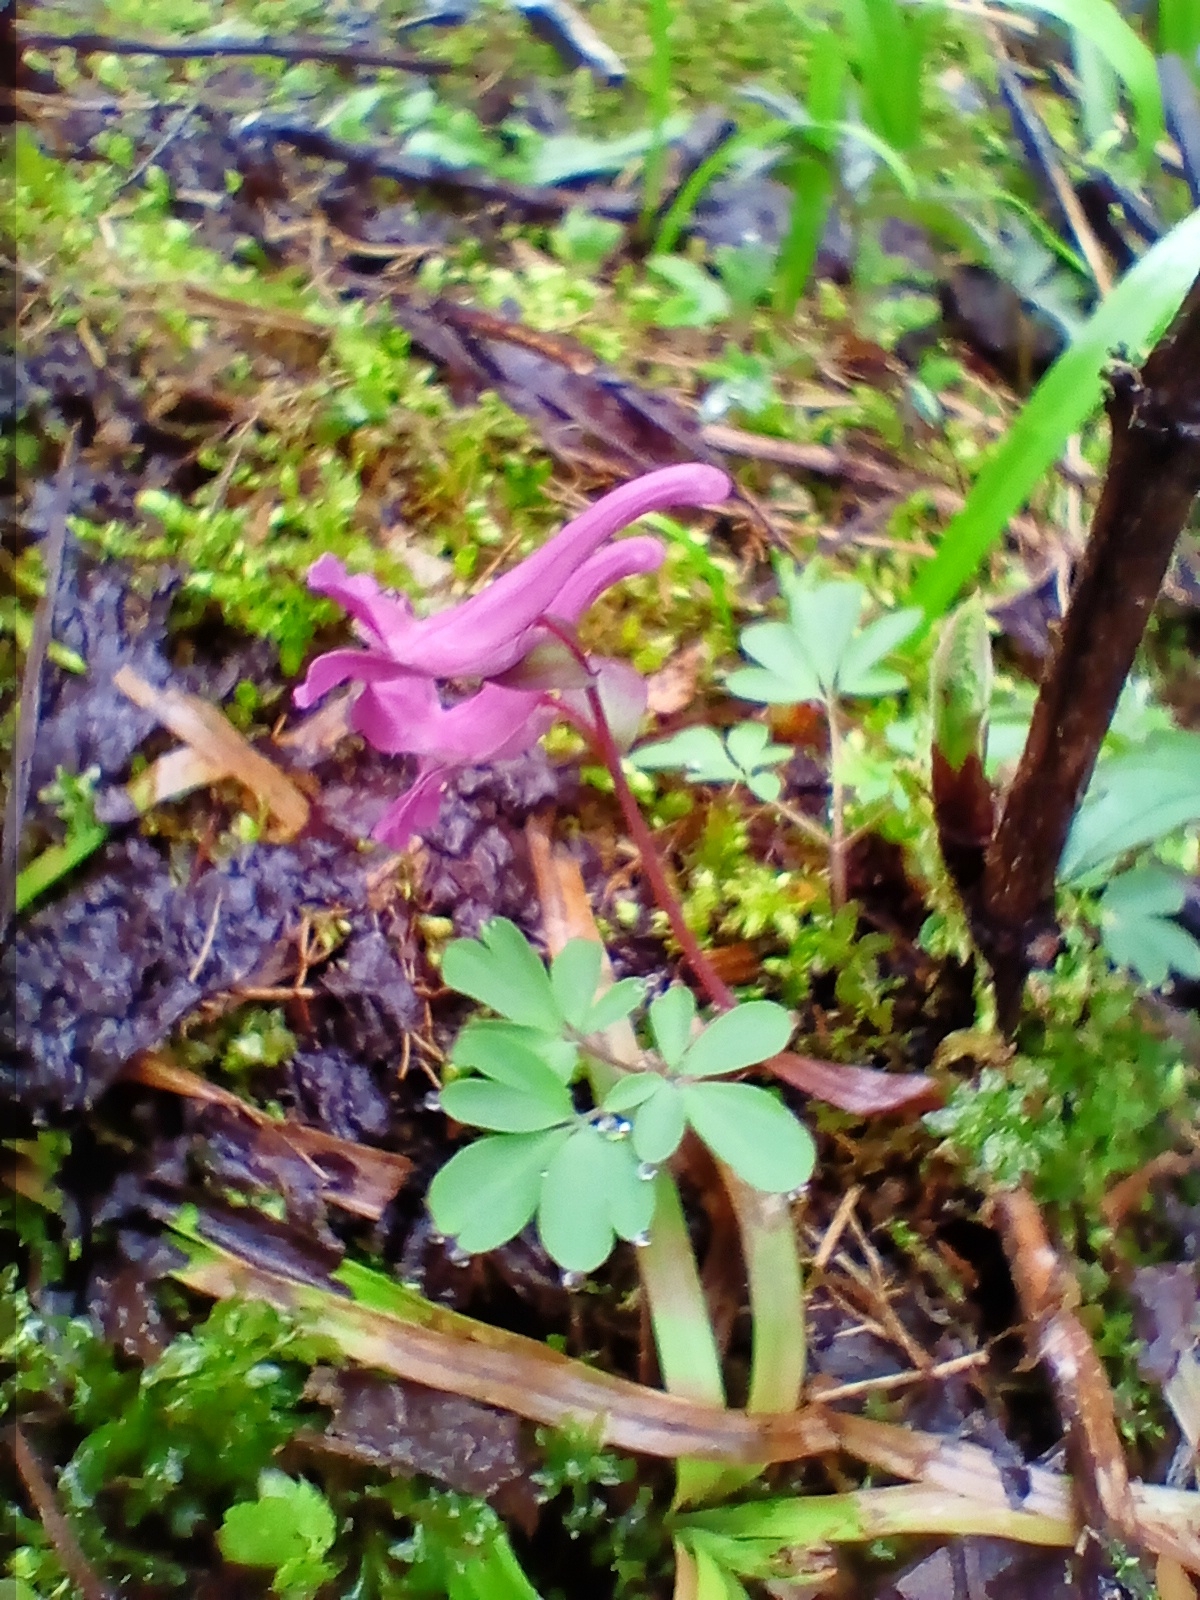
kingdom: Plantae
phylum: Tracheophyta
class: Magnoliopsida
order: Ranunculales
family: Papaveraceae
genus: Corydalis
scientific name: Corydalis caucasica
